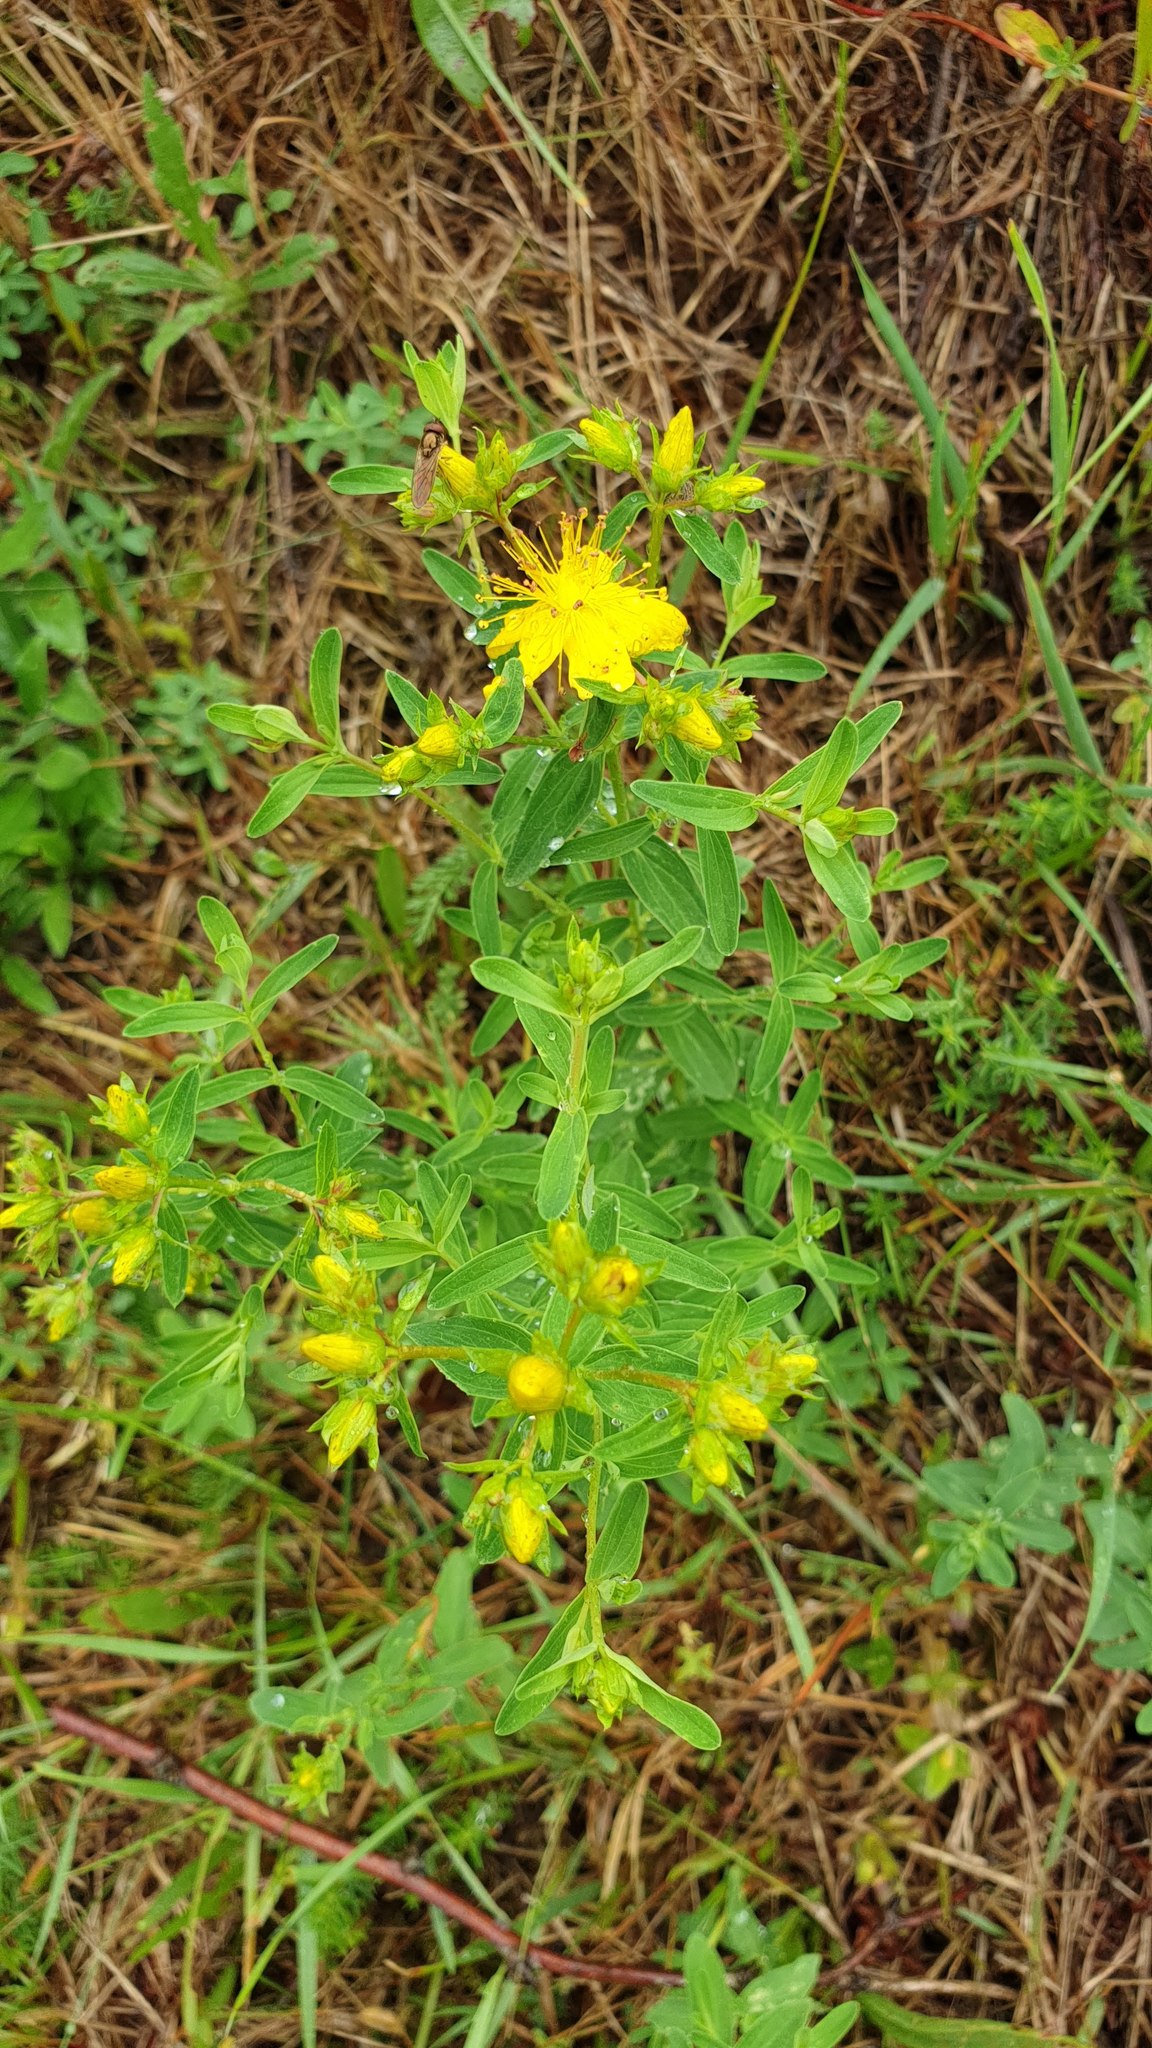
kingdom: Plantae
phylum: Tracheophyta
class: Magnoliopsida
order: Malpighiales
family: Hypericaceae
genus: Hypericum
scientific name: Hypericum perforatum
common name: Common st. johnswort
